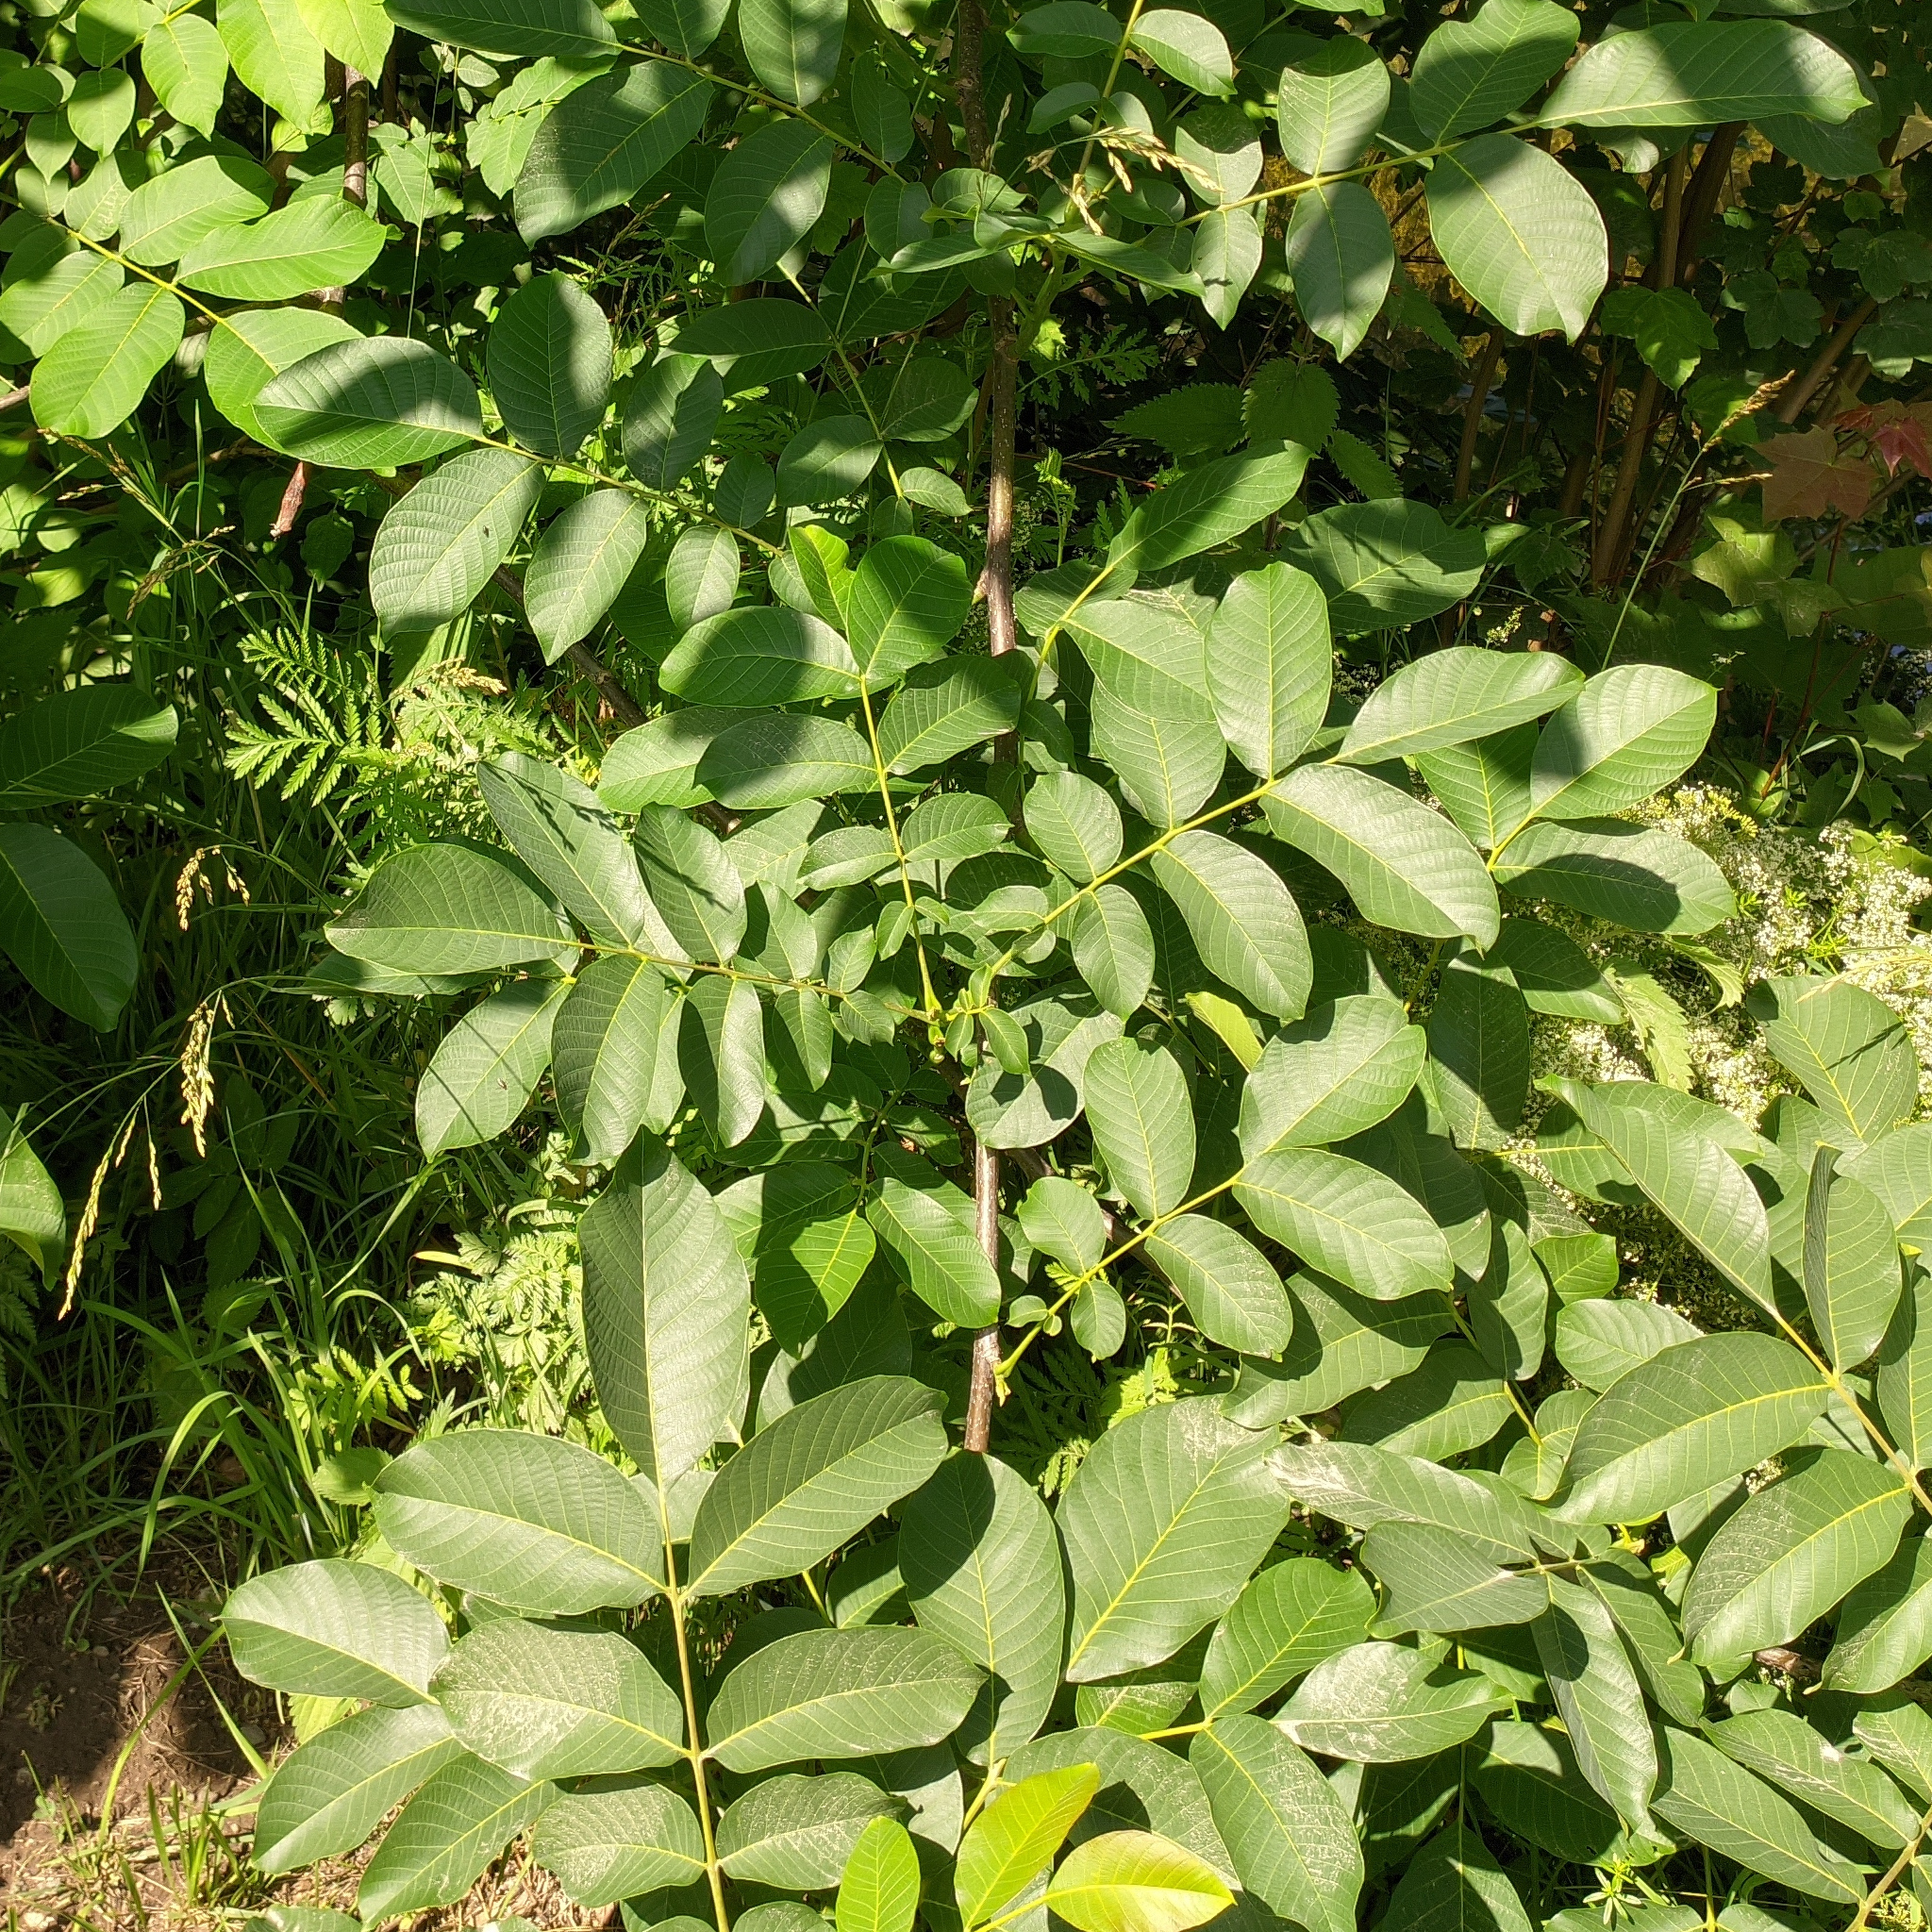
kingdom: Plantae
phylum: Tracheophyta
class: Magnoliopsida
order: Fagales
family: Juglandaceae
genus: Juglans
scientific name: Juglans regia
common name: Walnut
